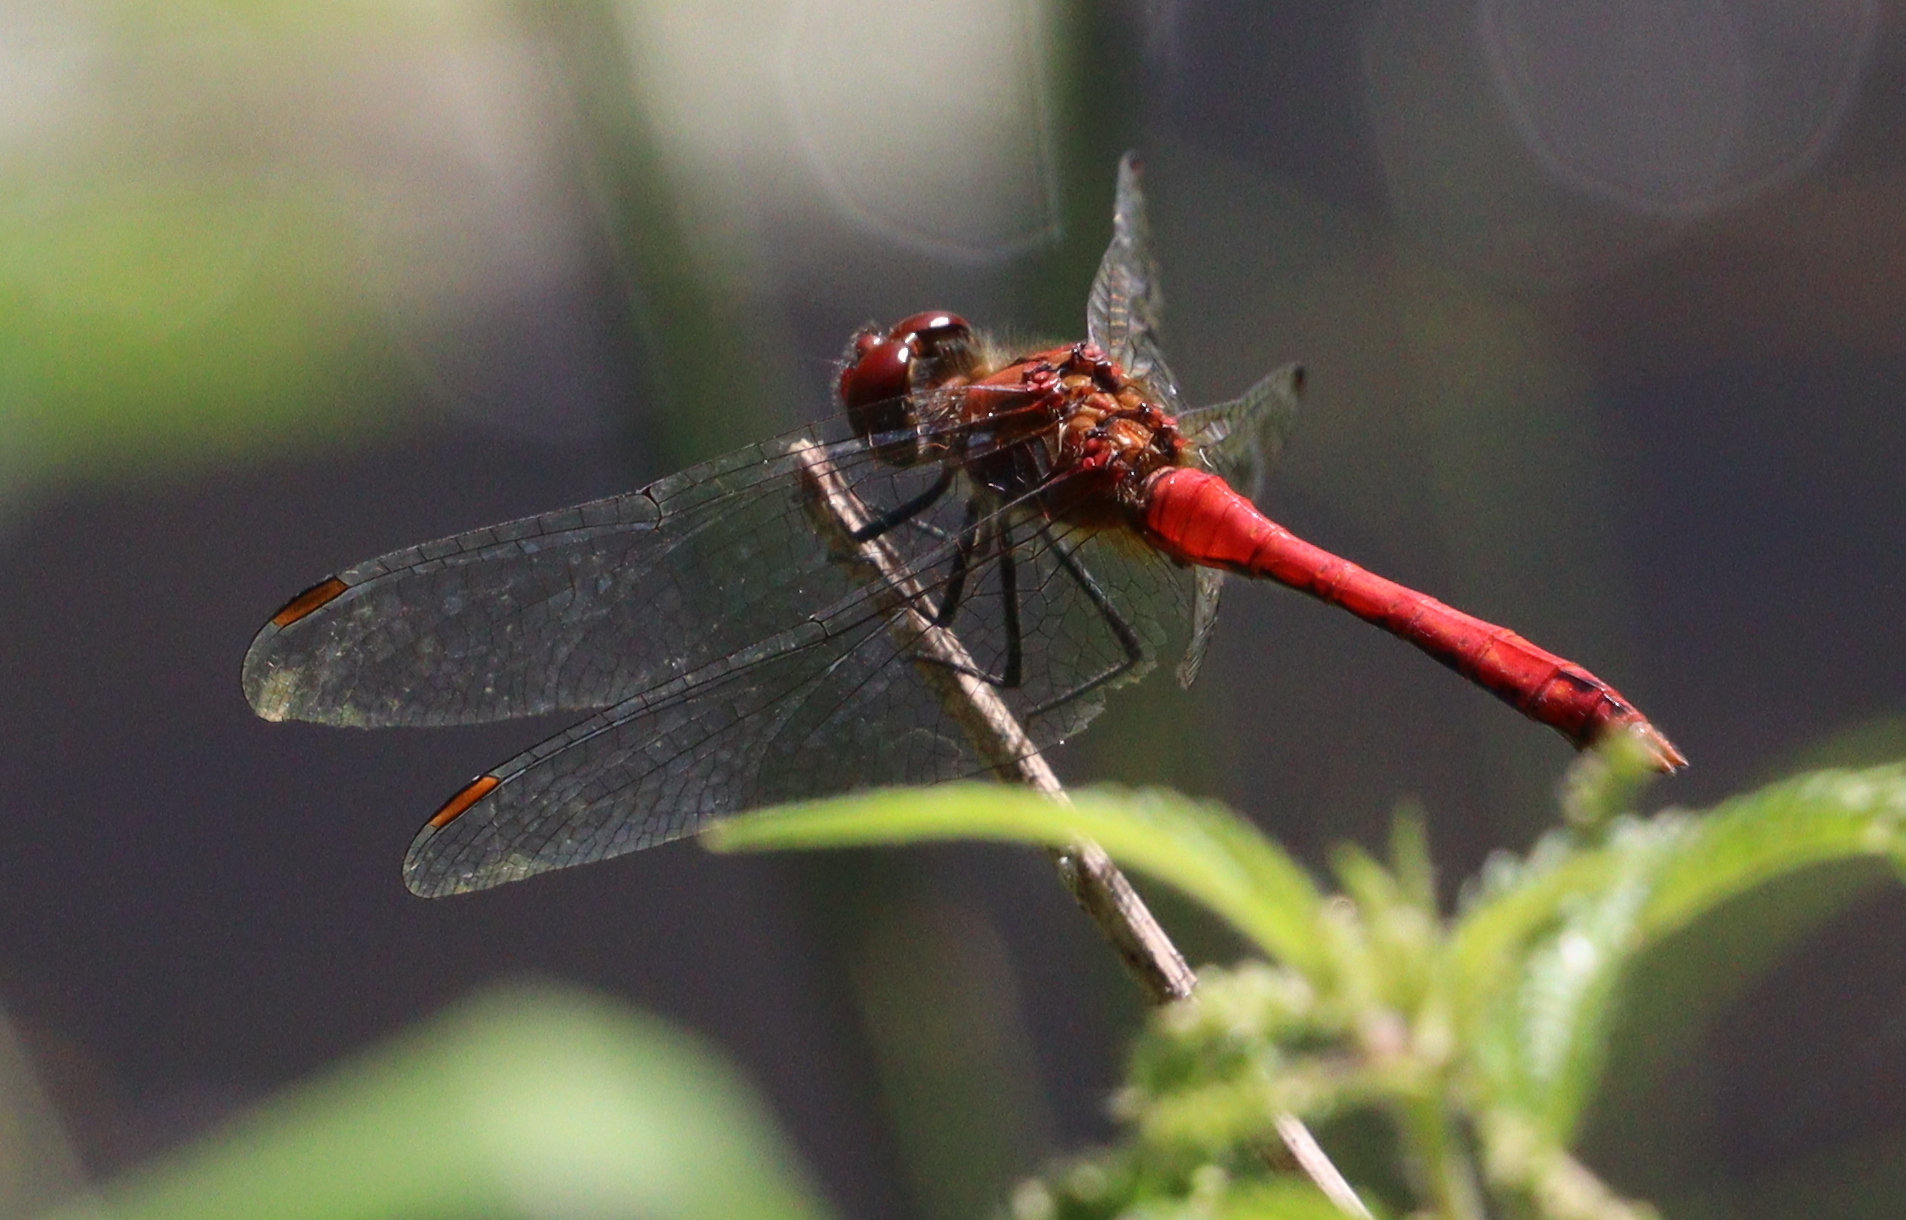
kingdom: Animalia
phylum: Arthropoda
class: Insecta
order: Odonata
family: Libellulidae
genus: Sympetrum
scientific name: Sympetrum sanguineum
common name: Ruddy darter
